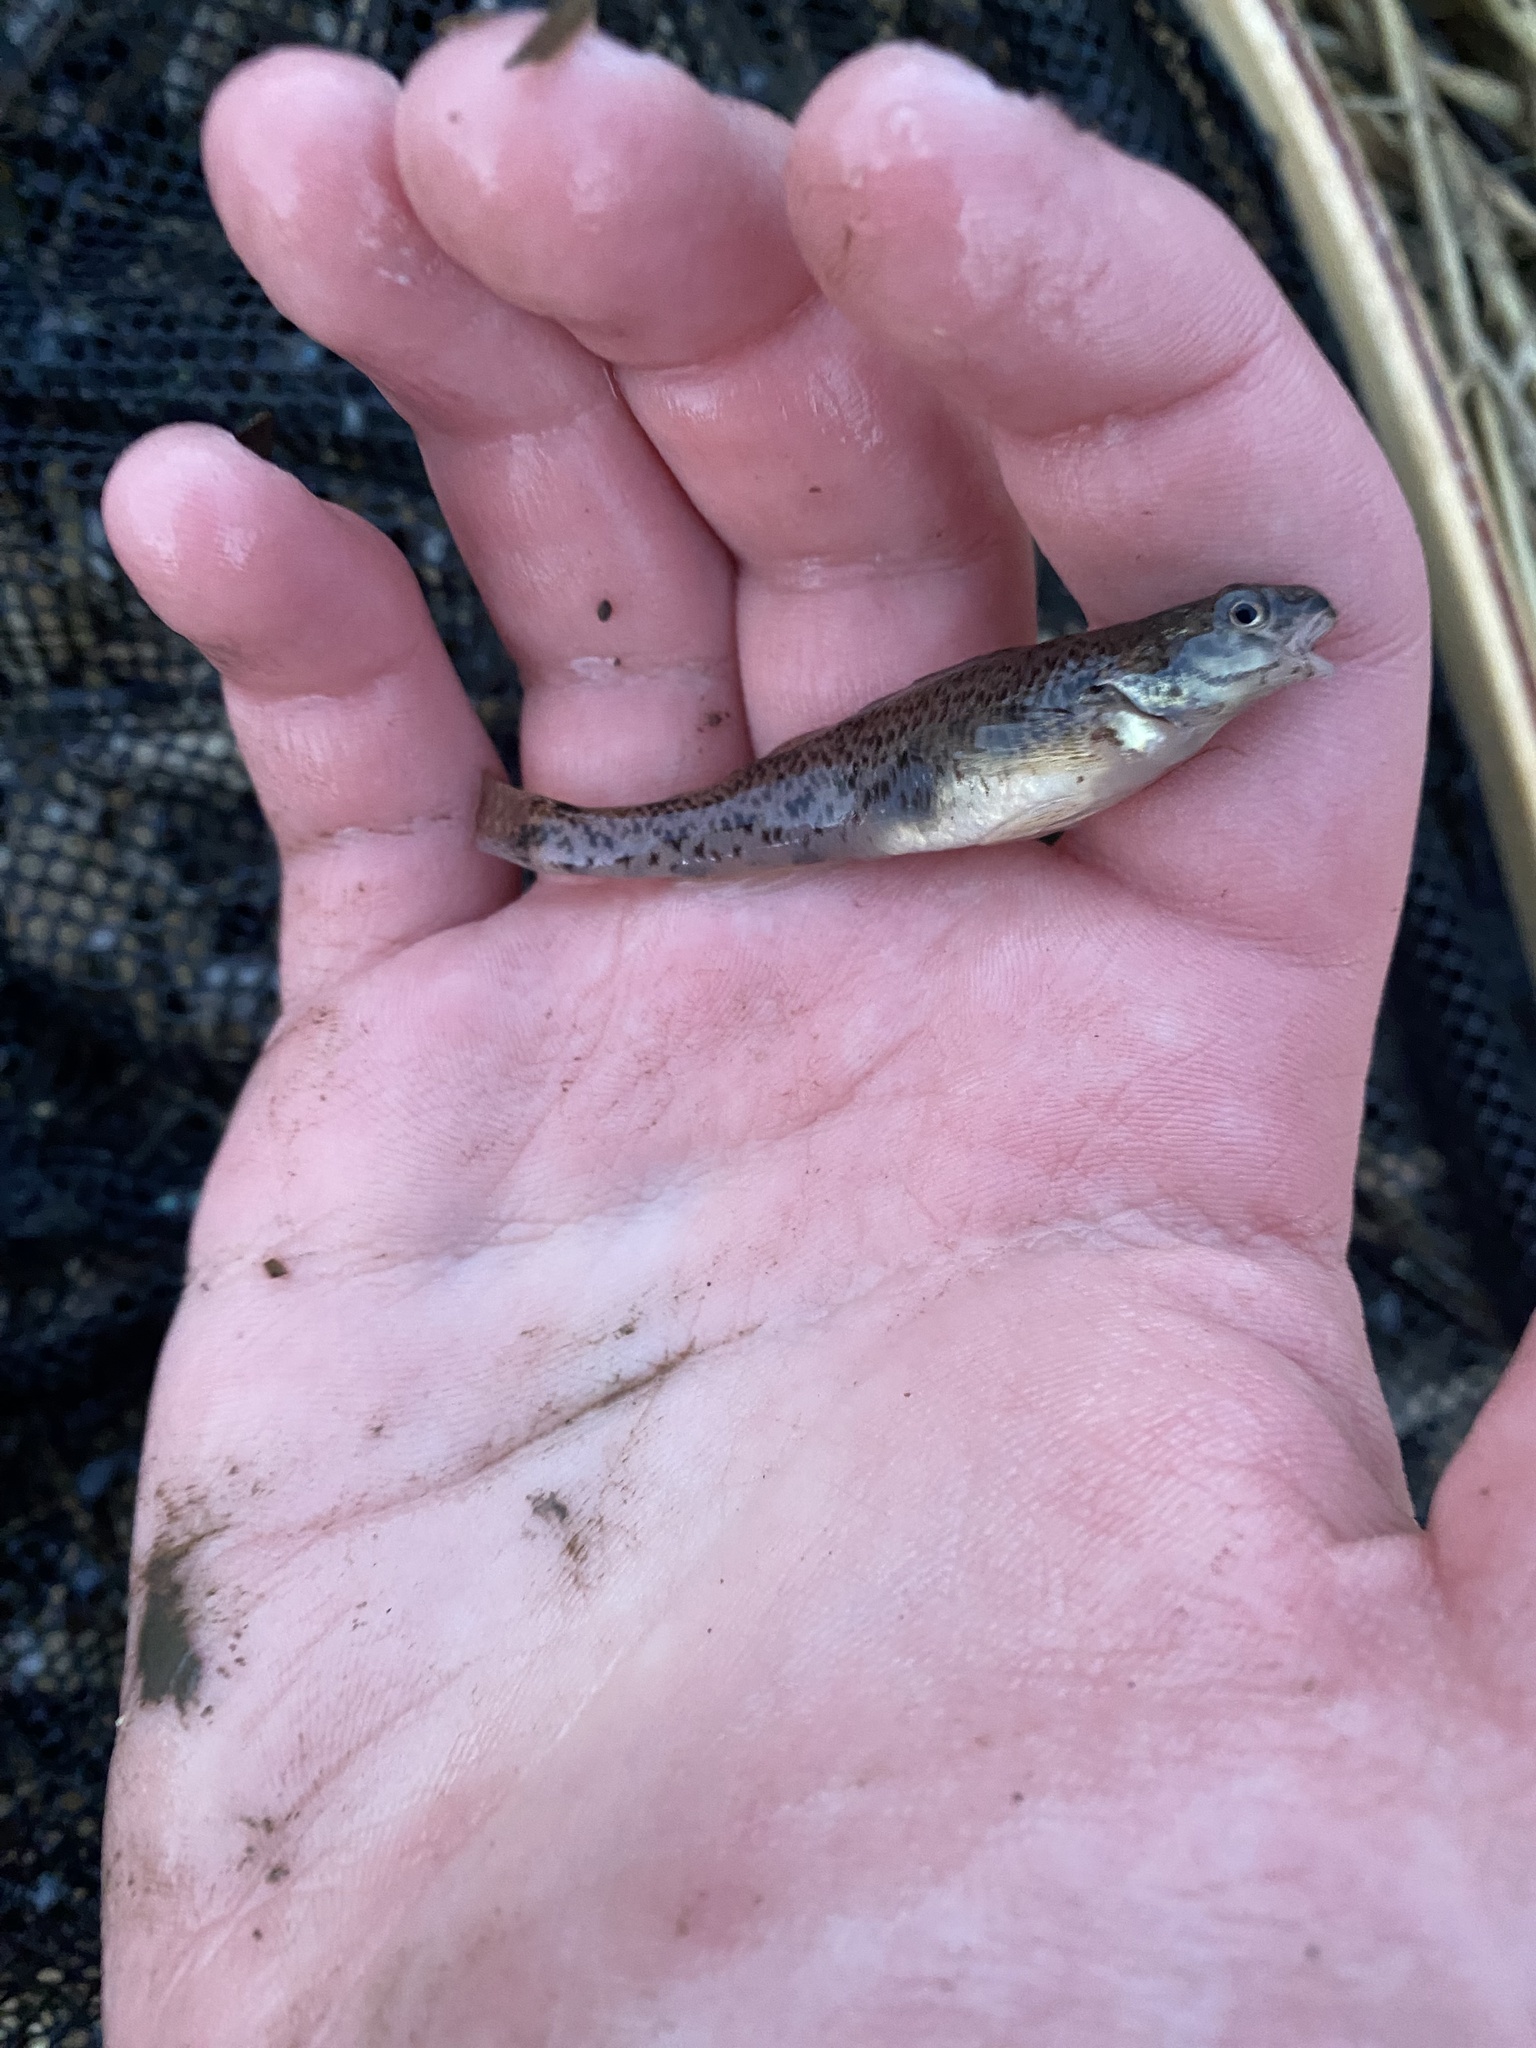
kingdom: Animalia
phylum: Chordata
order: Perciformes
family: Percidae
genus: Etheostoma
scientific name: Etheostoma nigrum
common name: Johnny darter
